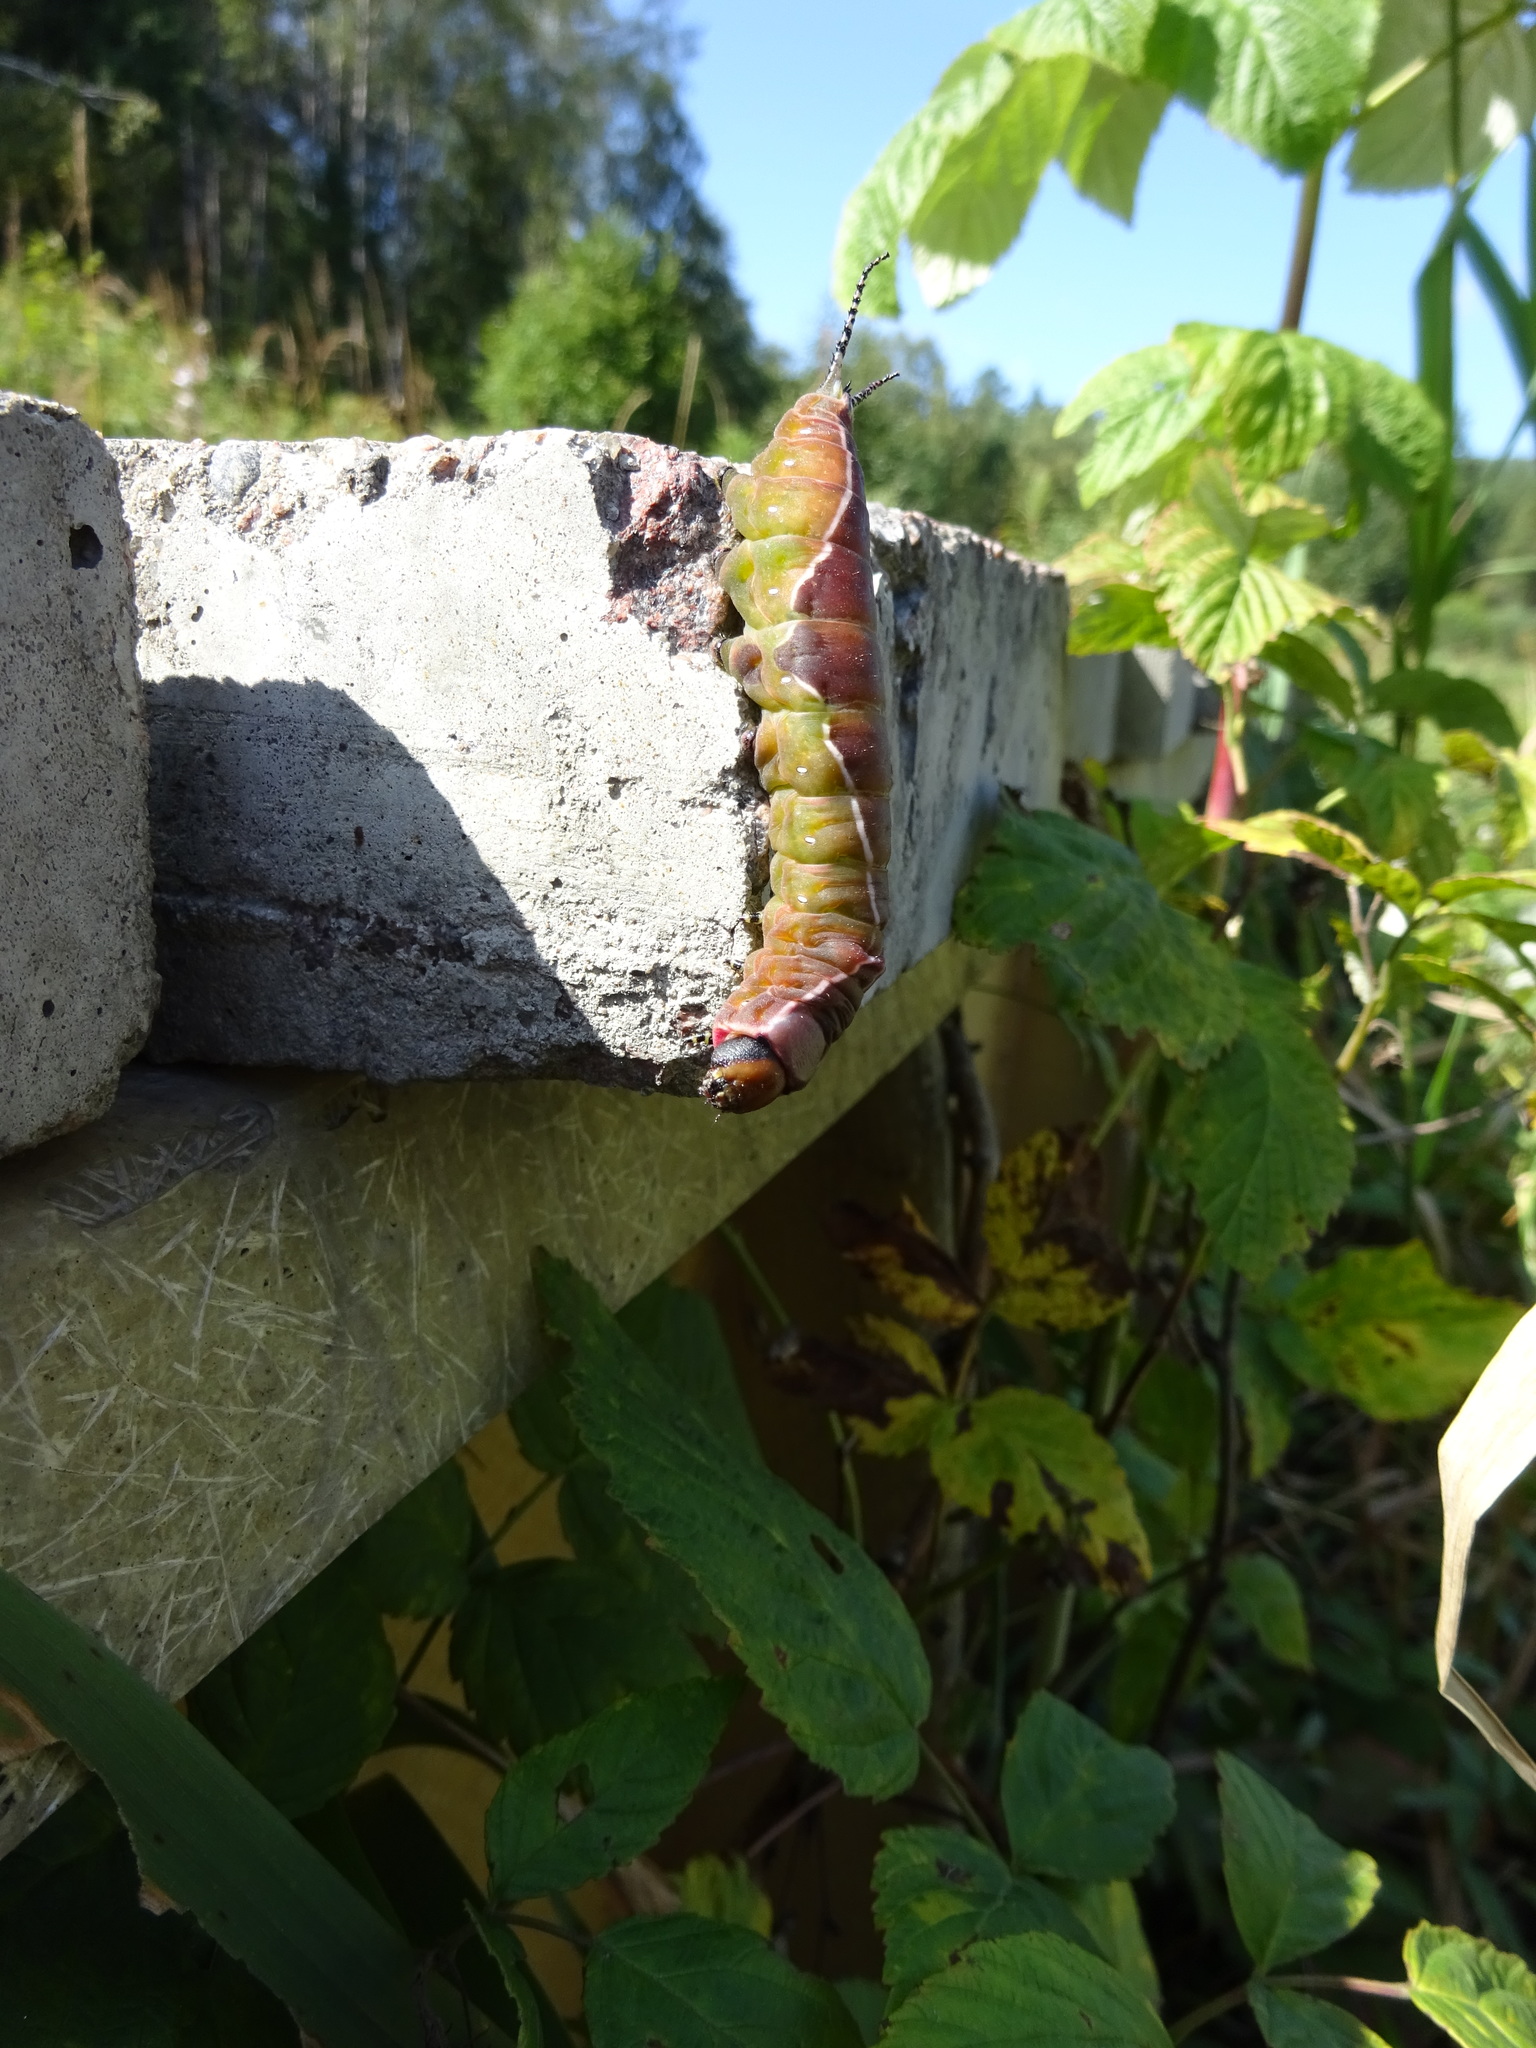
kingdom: Animalia
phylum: Arthropoda
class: Insecta
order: Lepidoptera
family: Notodontidae
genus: Cerura
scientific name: Cerura vinula
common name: Puss moth
